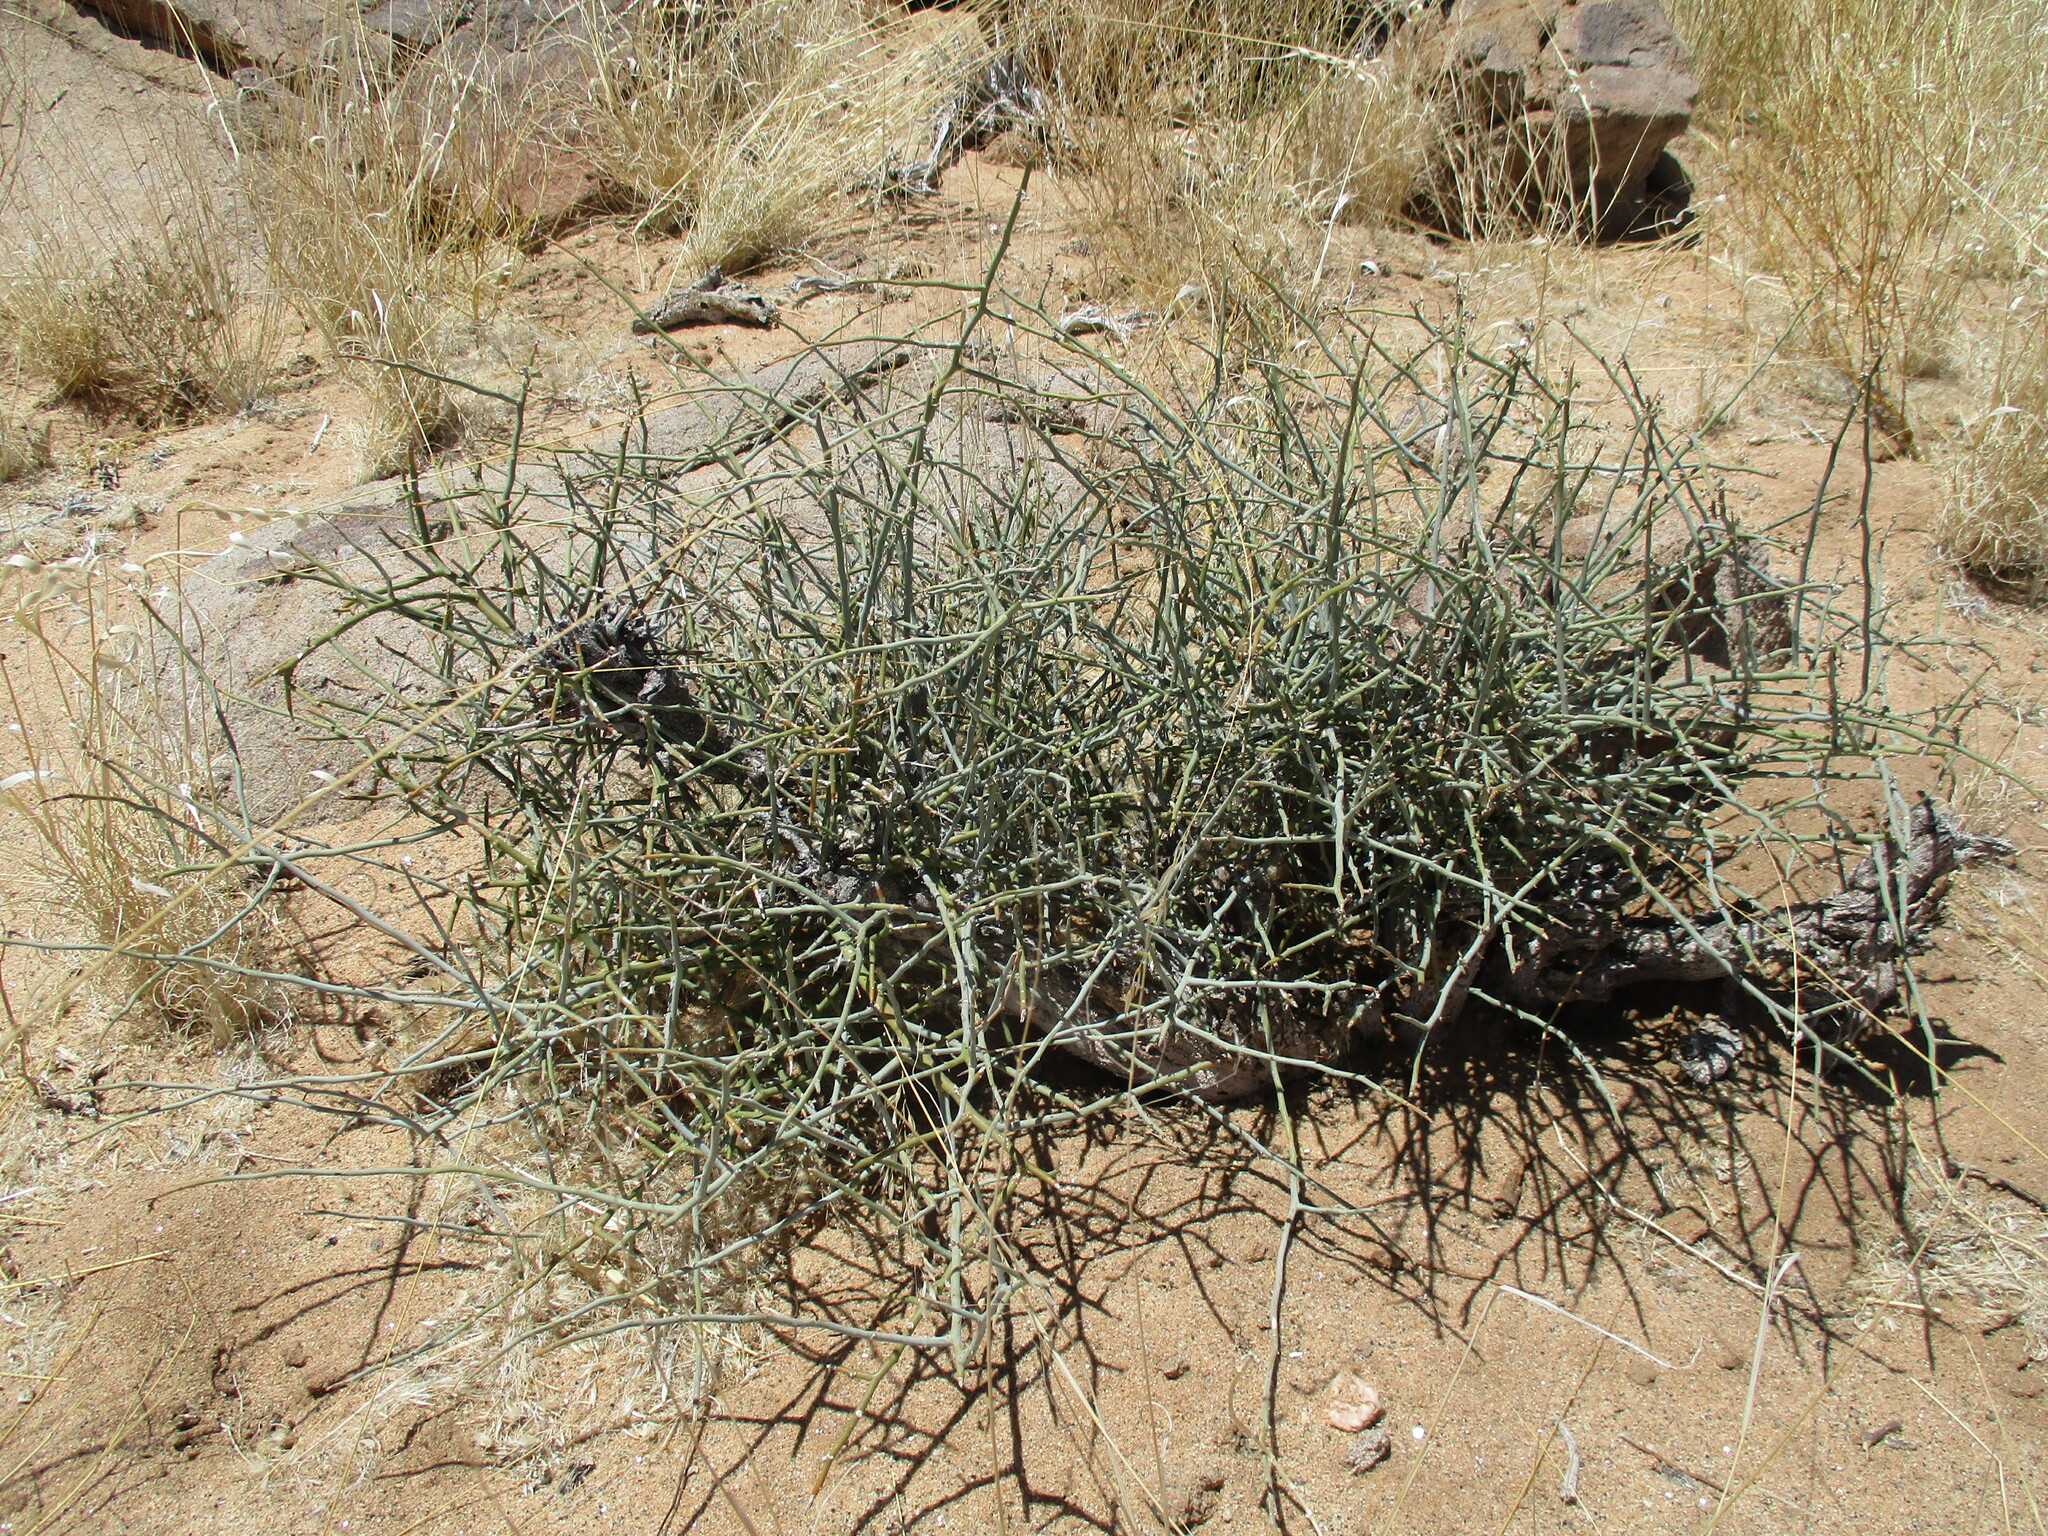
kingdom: Plantae
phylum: Tracheophyta
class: Magnoliopsida
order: Caryophyllales
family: Amaranthaceae
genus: Calicorema
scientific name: Calicorema capitata
